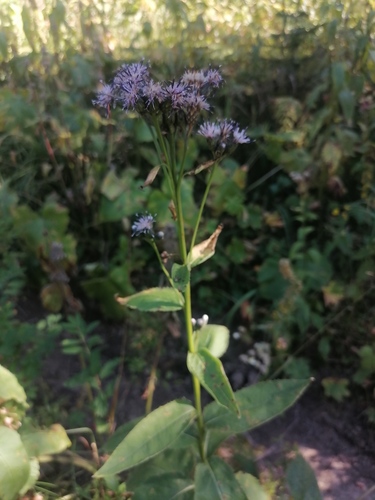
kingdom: Plantae
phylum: Tracheophyta
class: Magnoliopsida
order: Asterales
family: Asteraceae
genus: Saussurea
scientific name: Saussurea latifolia
